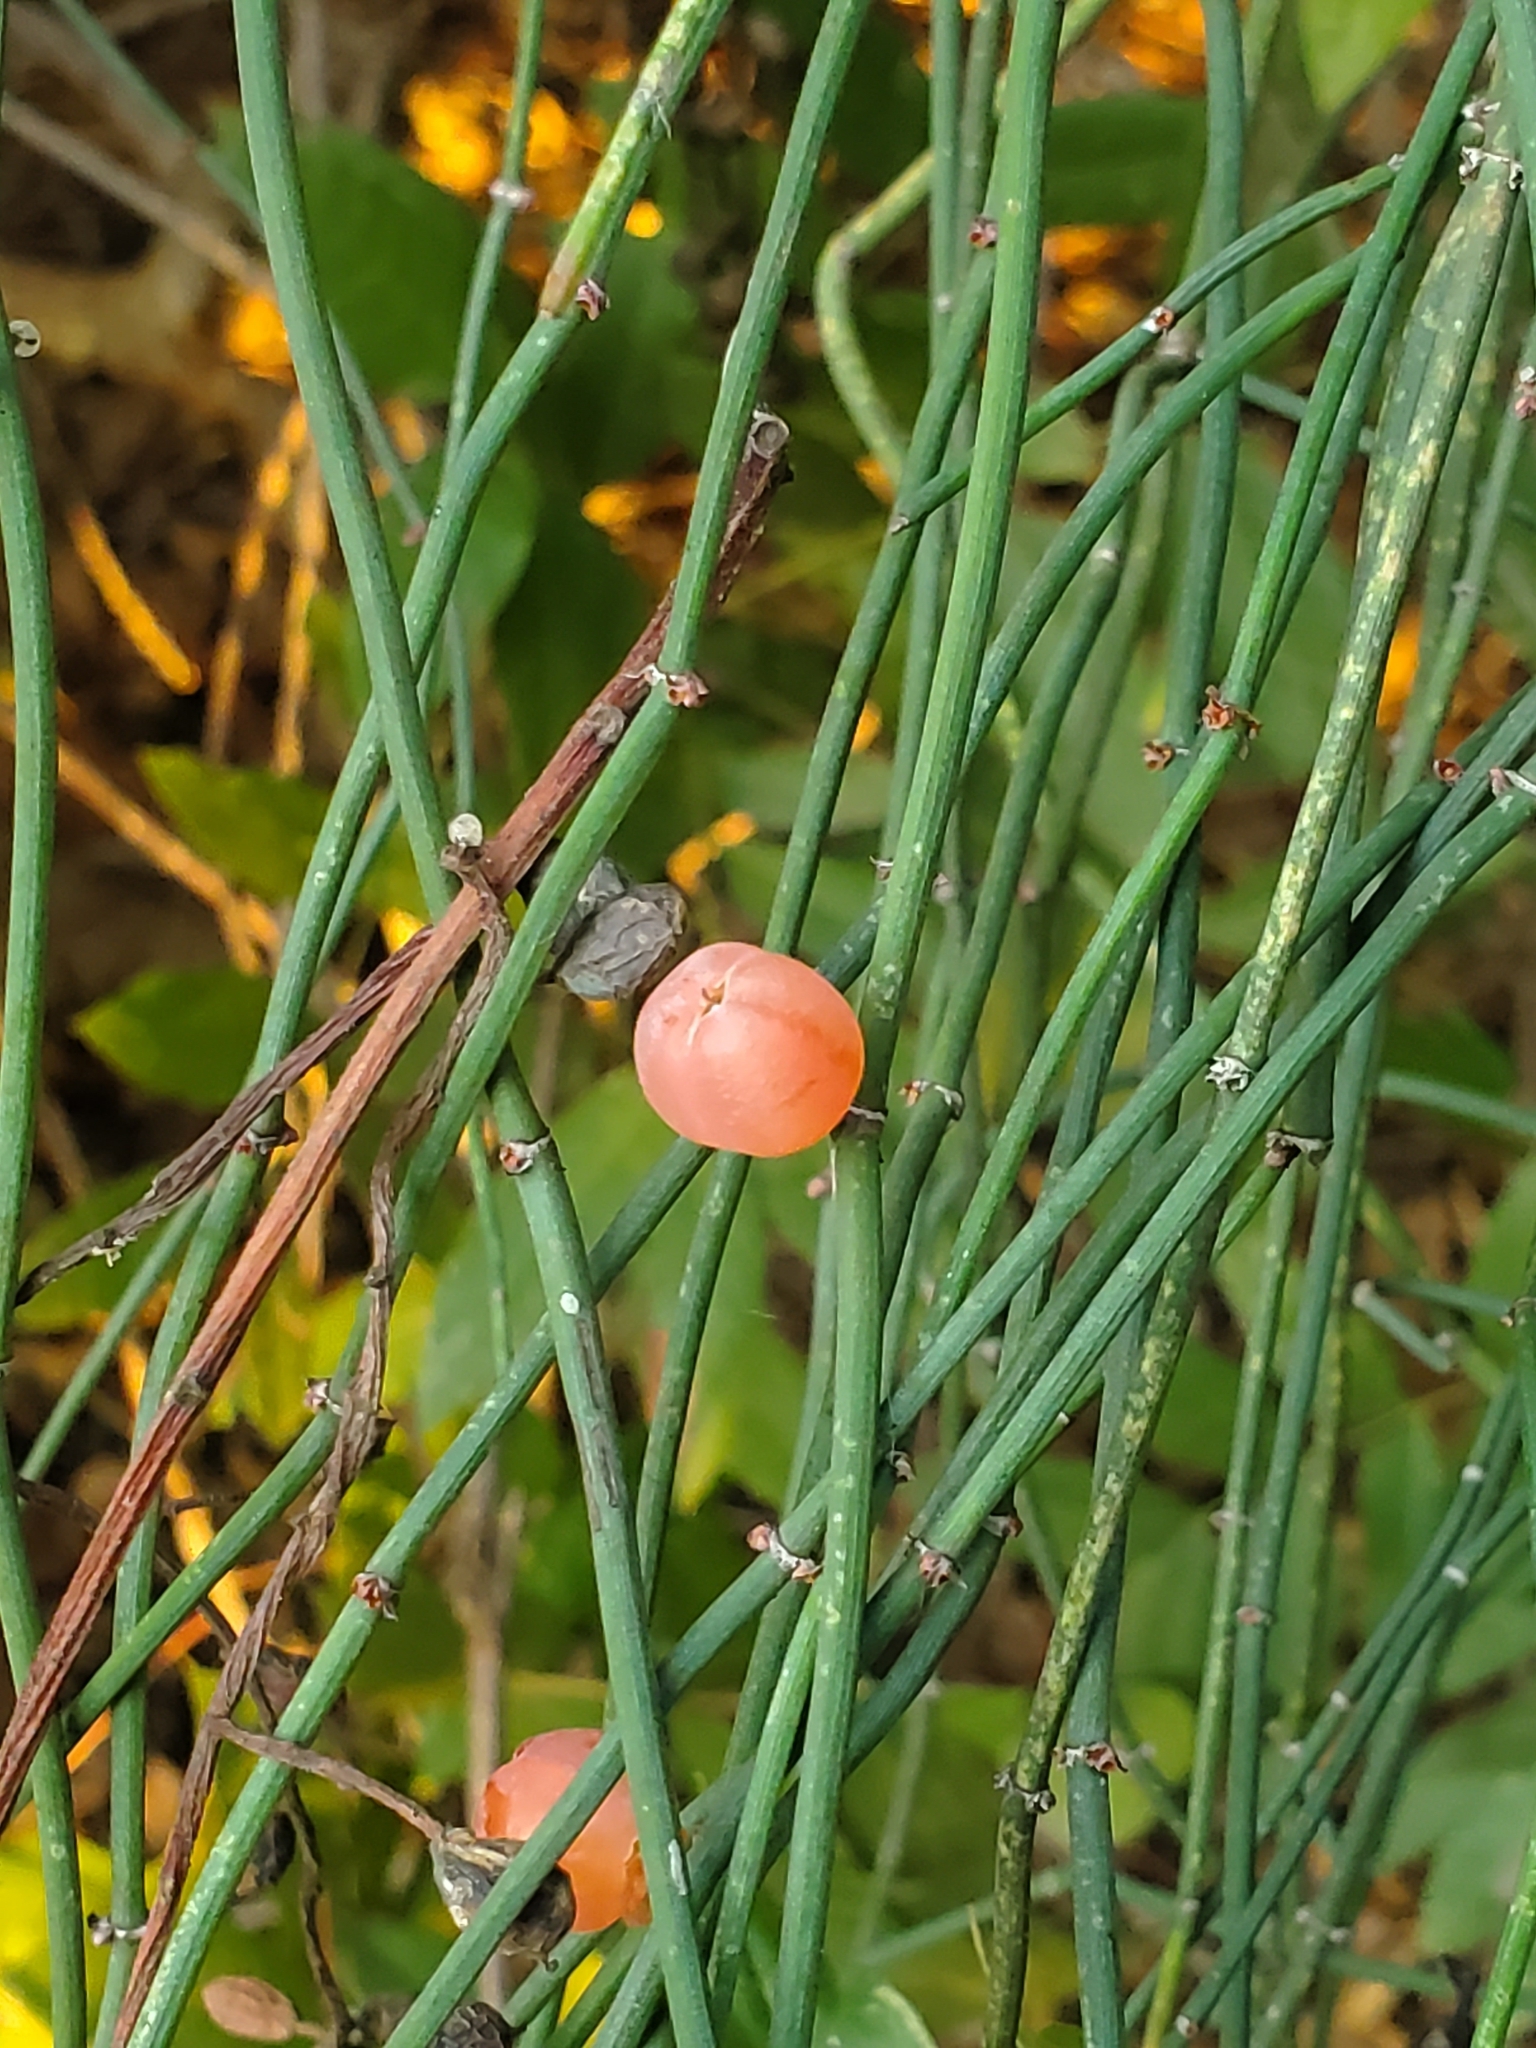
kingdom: Plantae
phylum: Tracheophyta
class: Gnetopsida
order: Ephedrales
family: Ephedraceae
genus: Ephedra
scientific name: Ephedra foeminea
